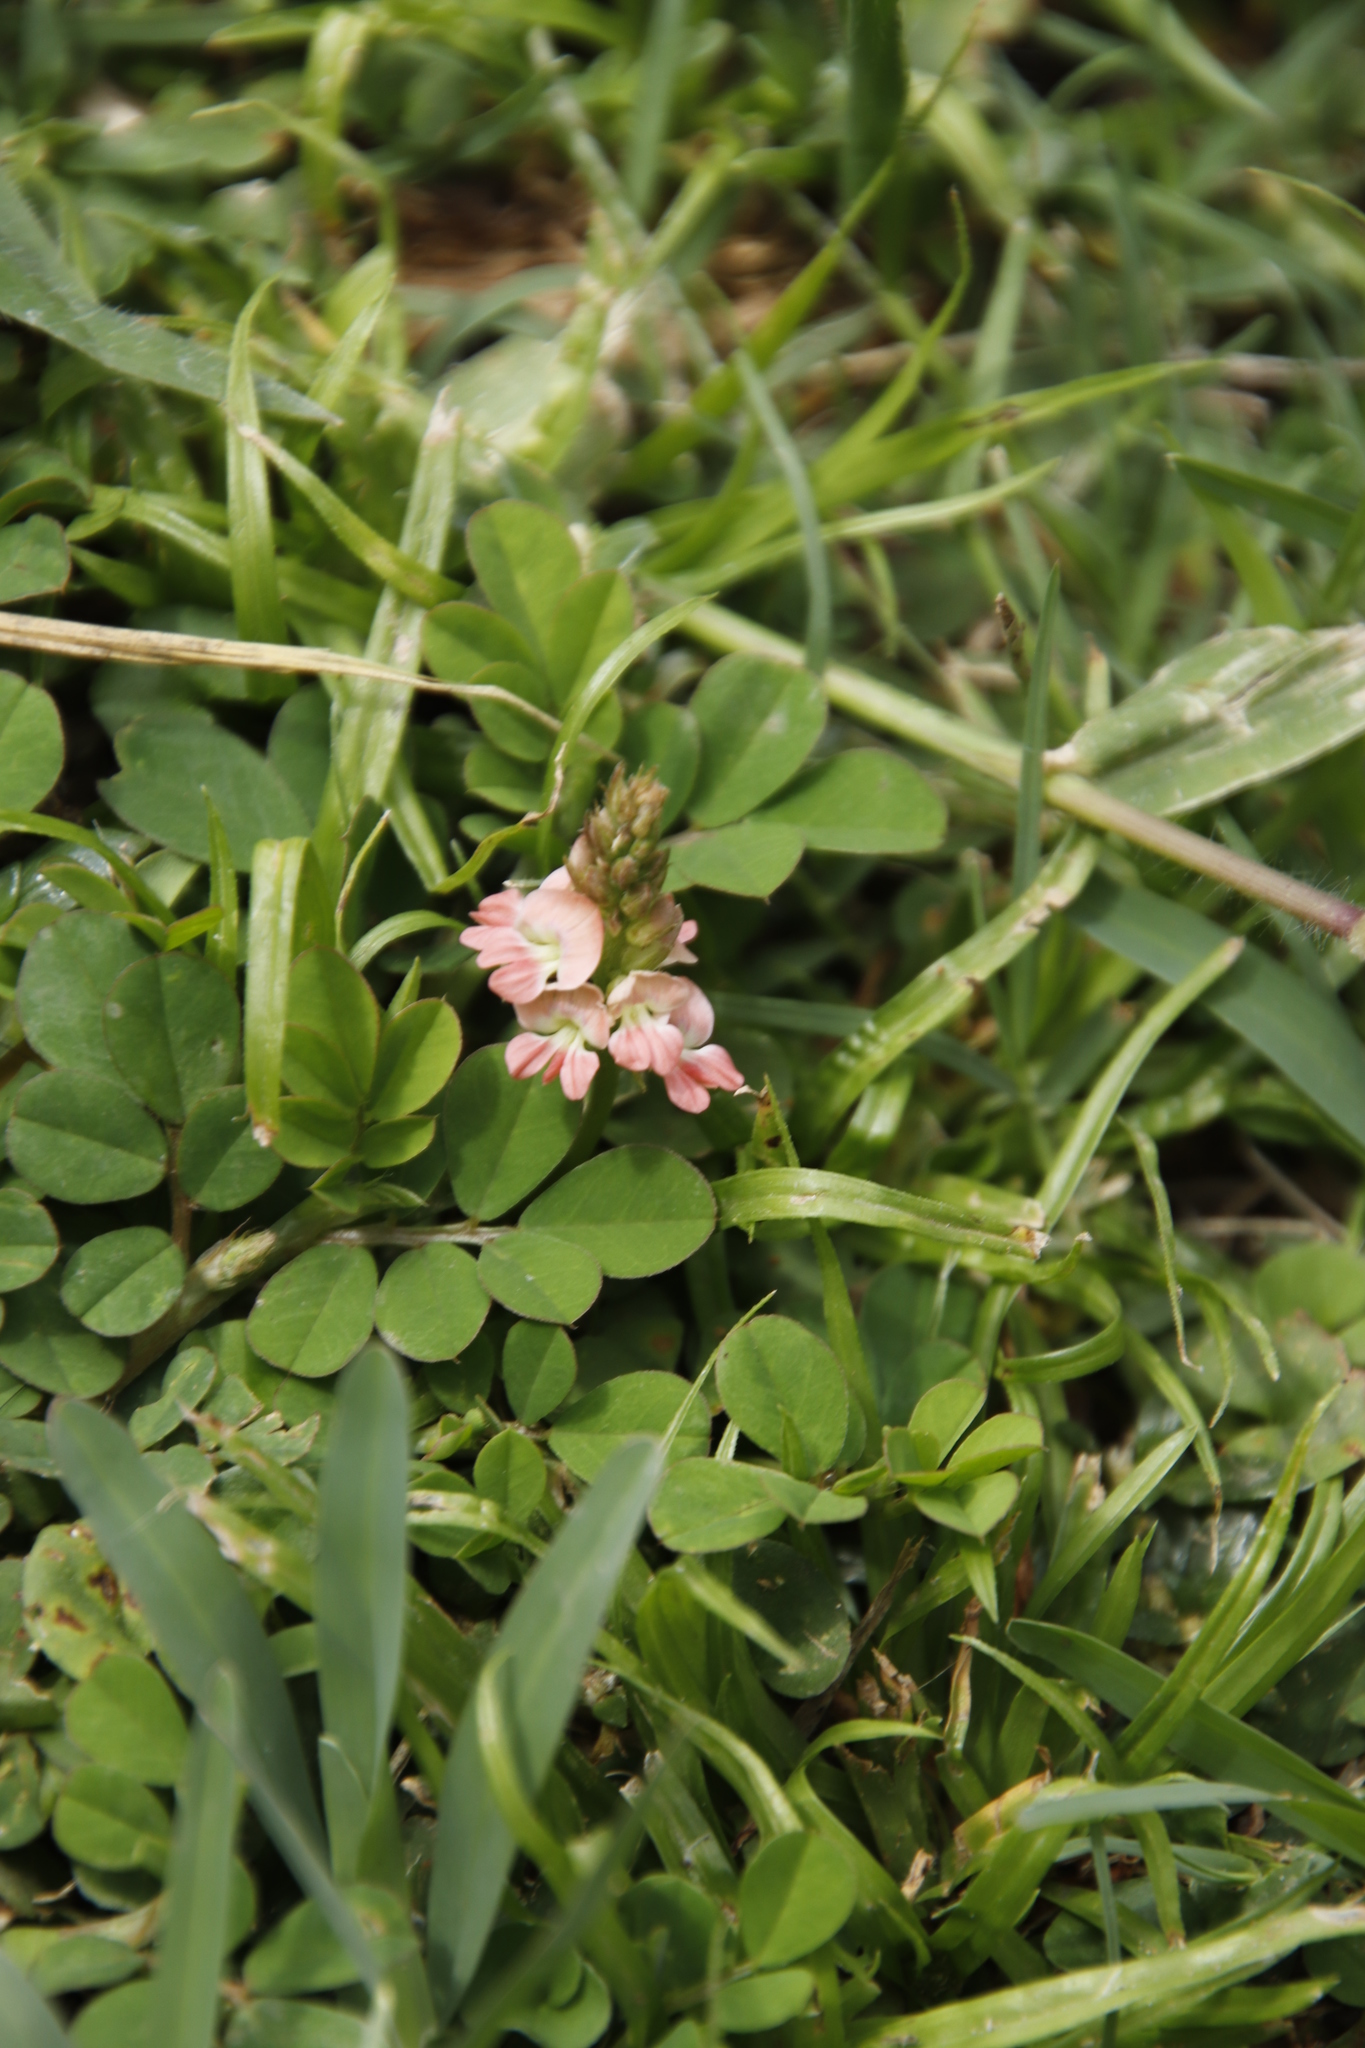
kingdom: Plantae
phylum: Tracheophyta
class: Magnoliopsida
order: Fabales
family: Fabaceae
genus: Indigofera
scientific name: Indigofera spicata
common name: Creeping indigo
